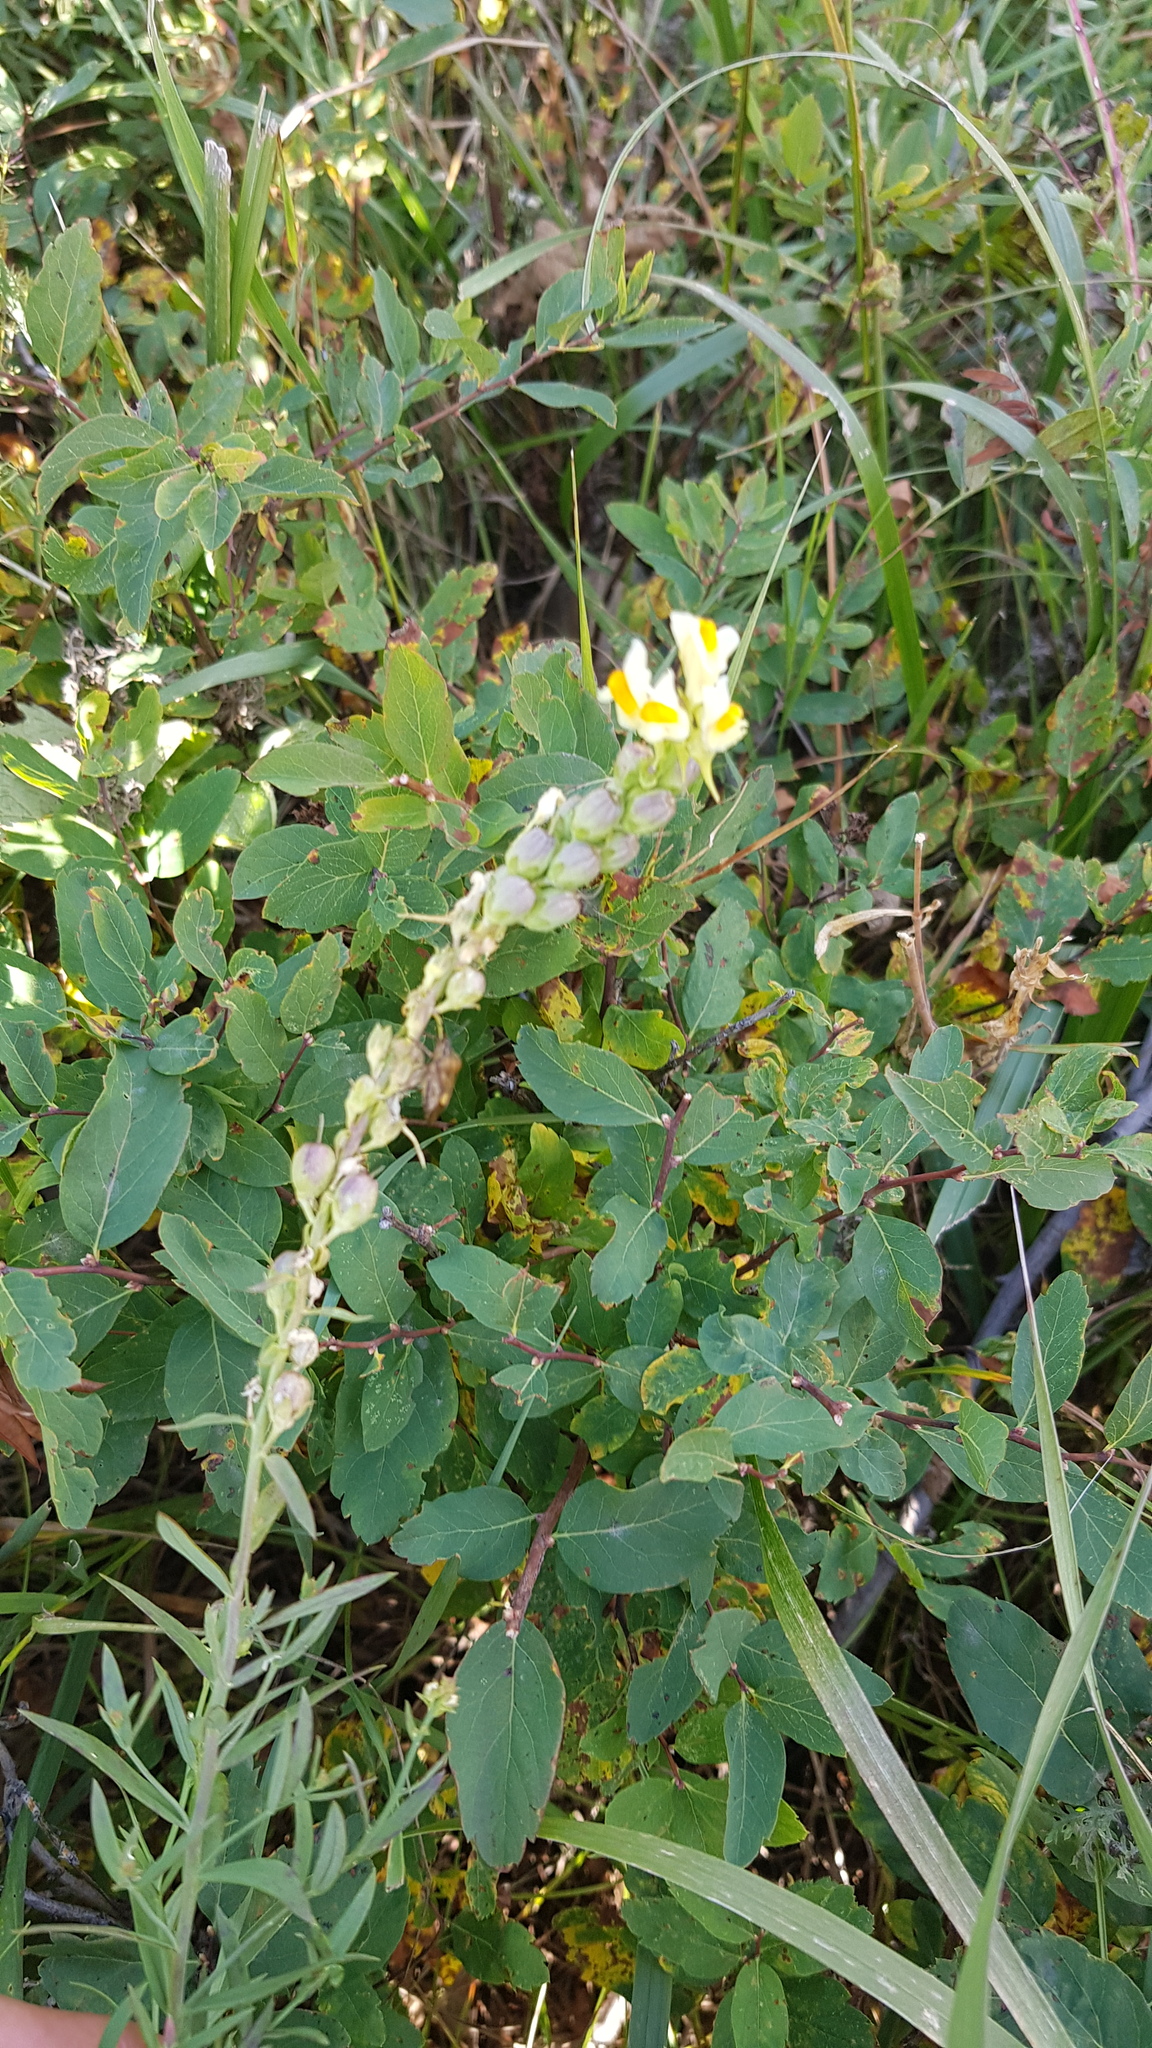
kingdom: Plantae
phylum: Tracheophyta
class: Magnoliopsida
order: Lamiales
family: Plantaginaceae
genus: Linaria
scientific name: Linaria vulgaris
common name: Butter and eggs
